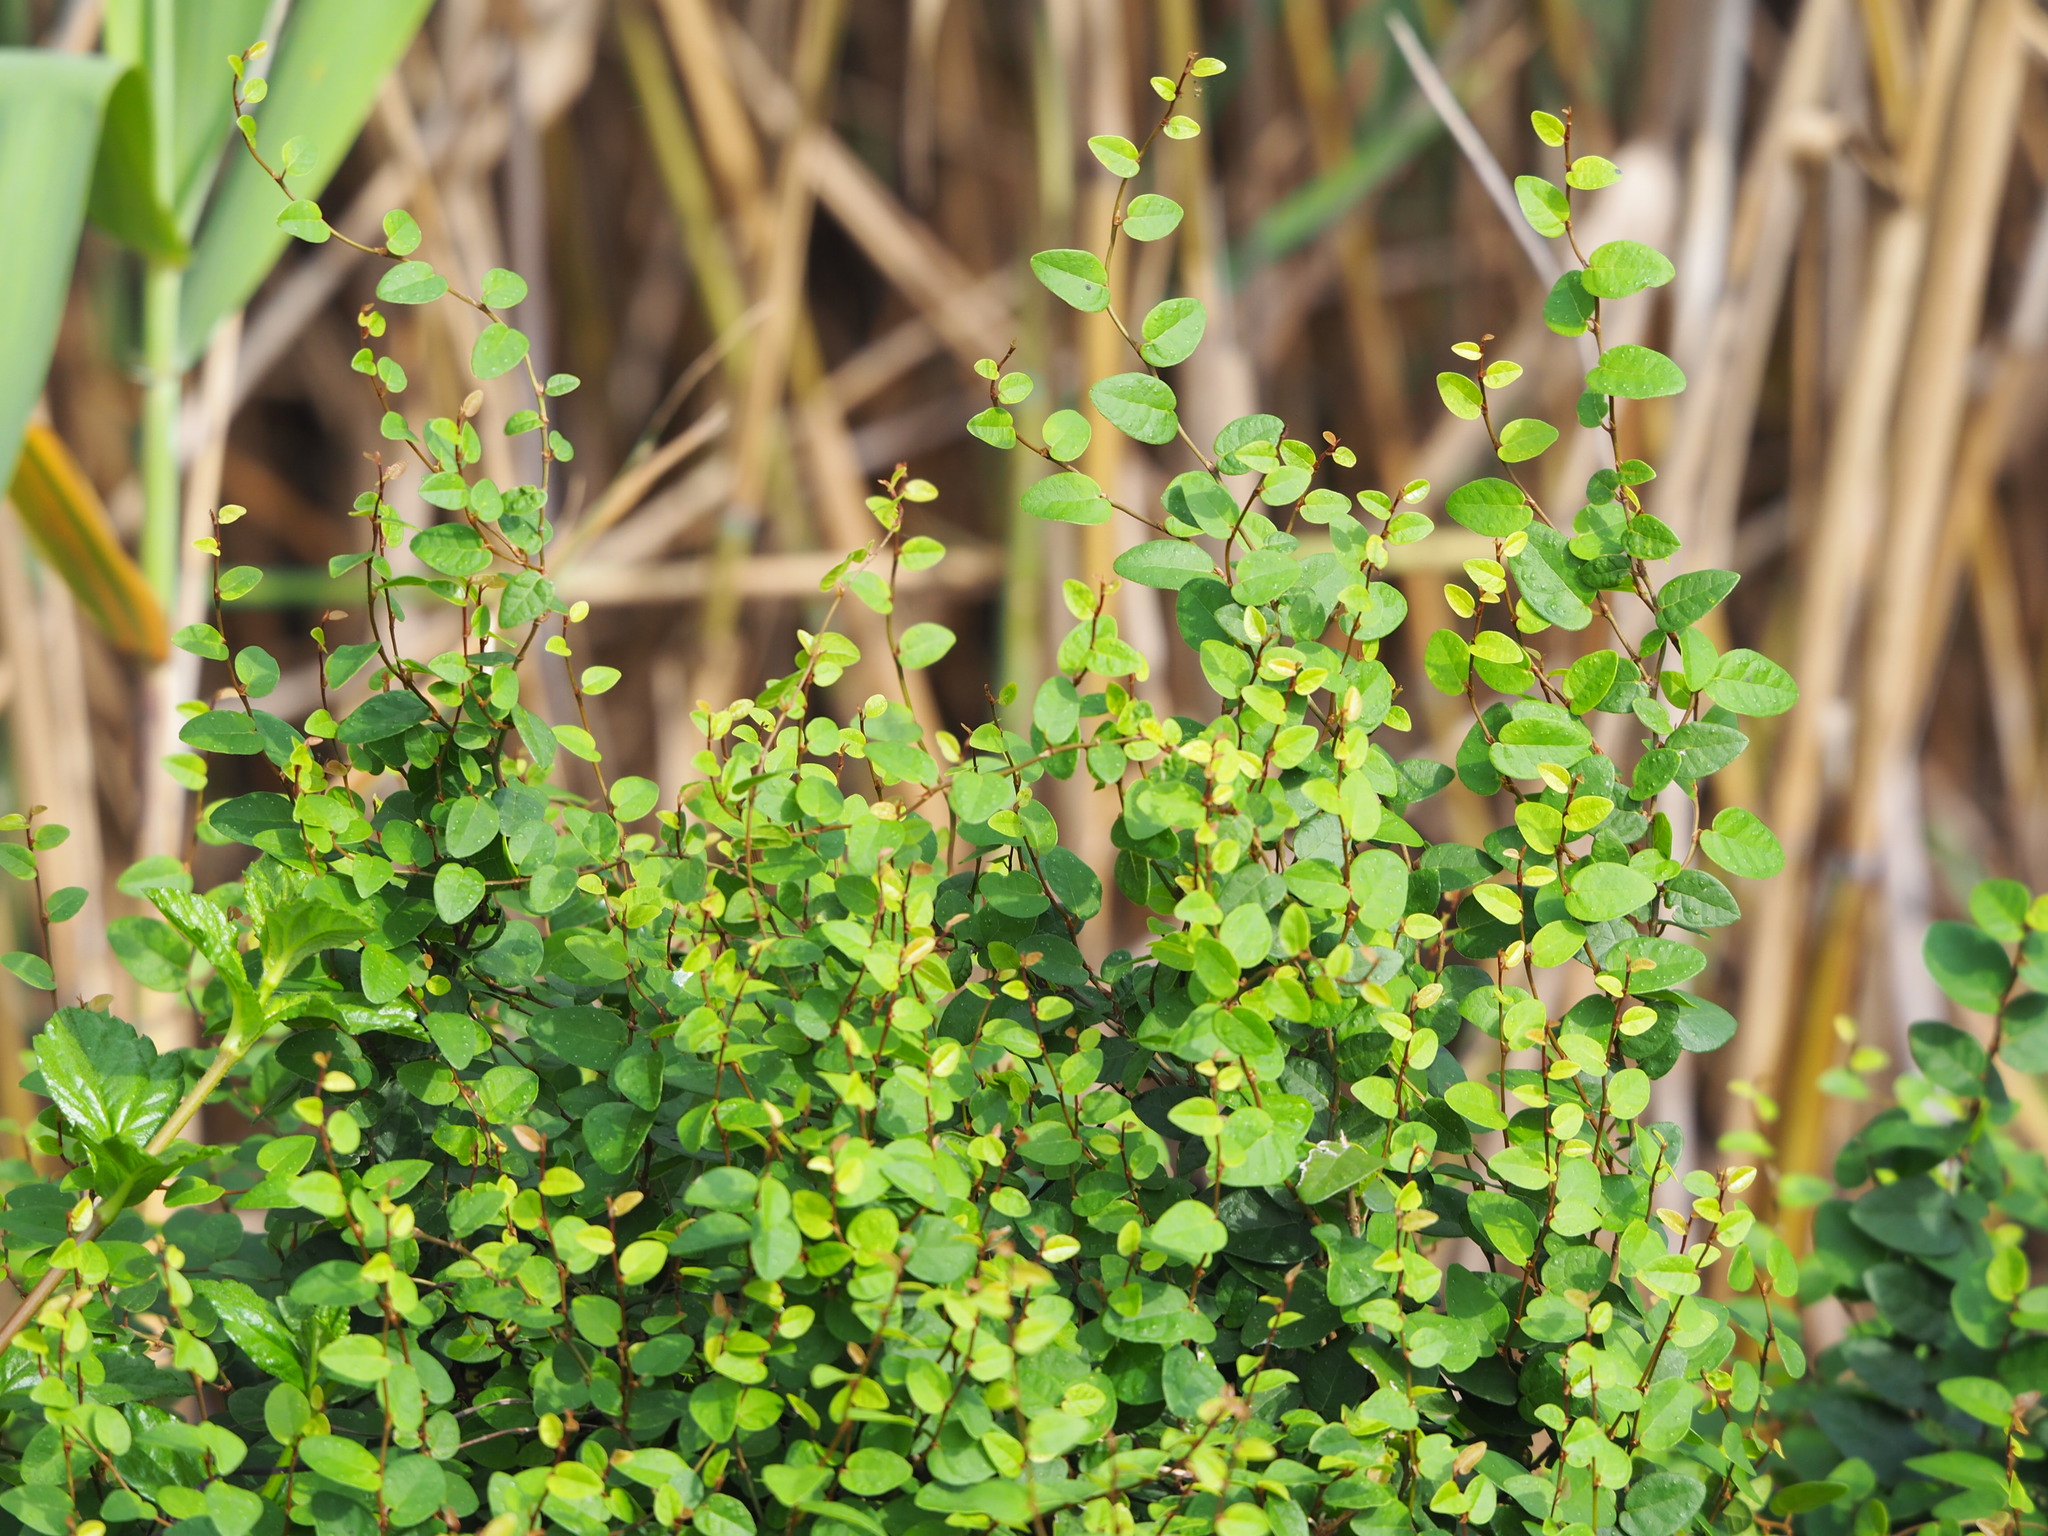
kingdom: Plantae
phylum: Tracheophyta
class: Magnoliopsida
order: Rosales
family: Moraceae
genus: Ficus
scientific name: Ficus pumila
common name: Climbingfig
